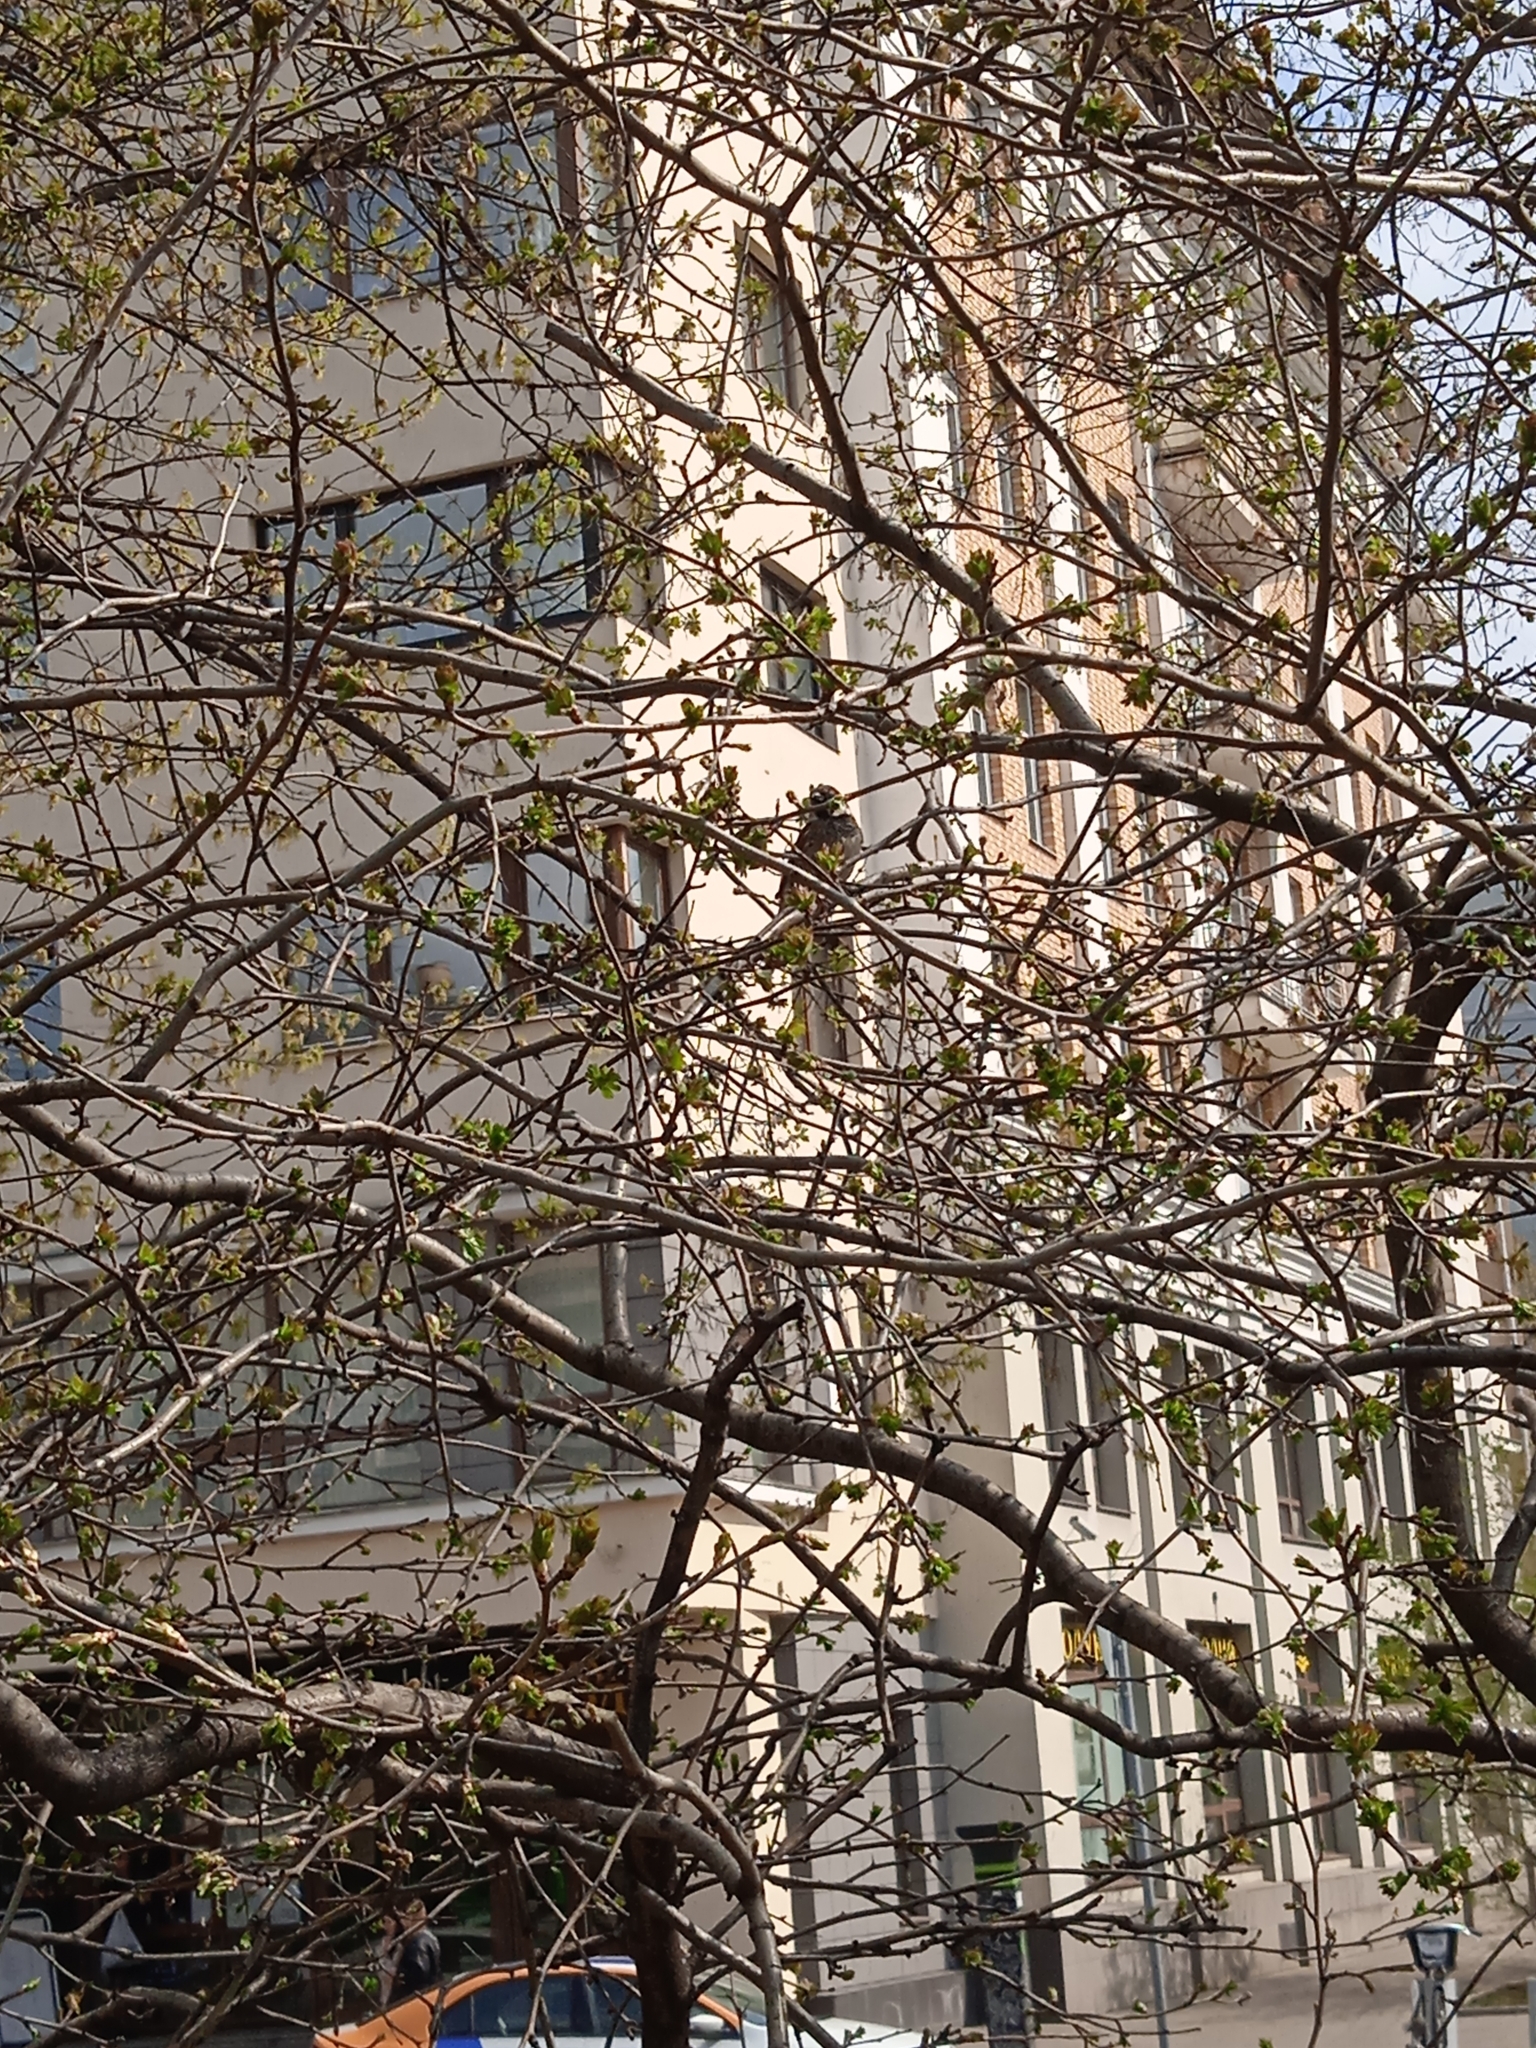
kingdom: Animalia
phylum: Chordata
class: Aves
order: Passeriformes
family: Passeridae
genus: Passer
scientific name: Passer domesticus
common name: House sparrow
